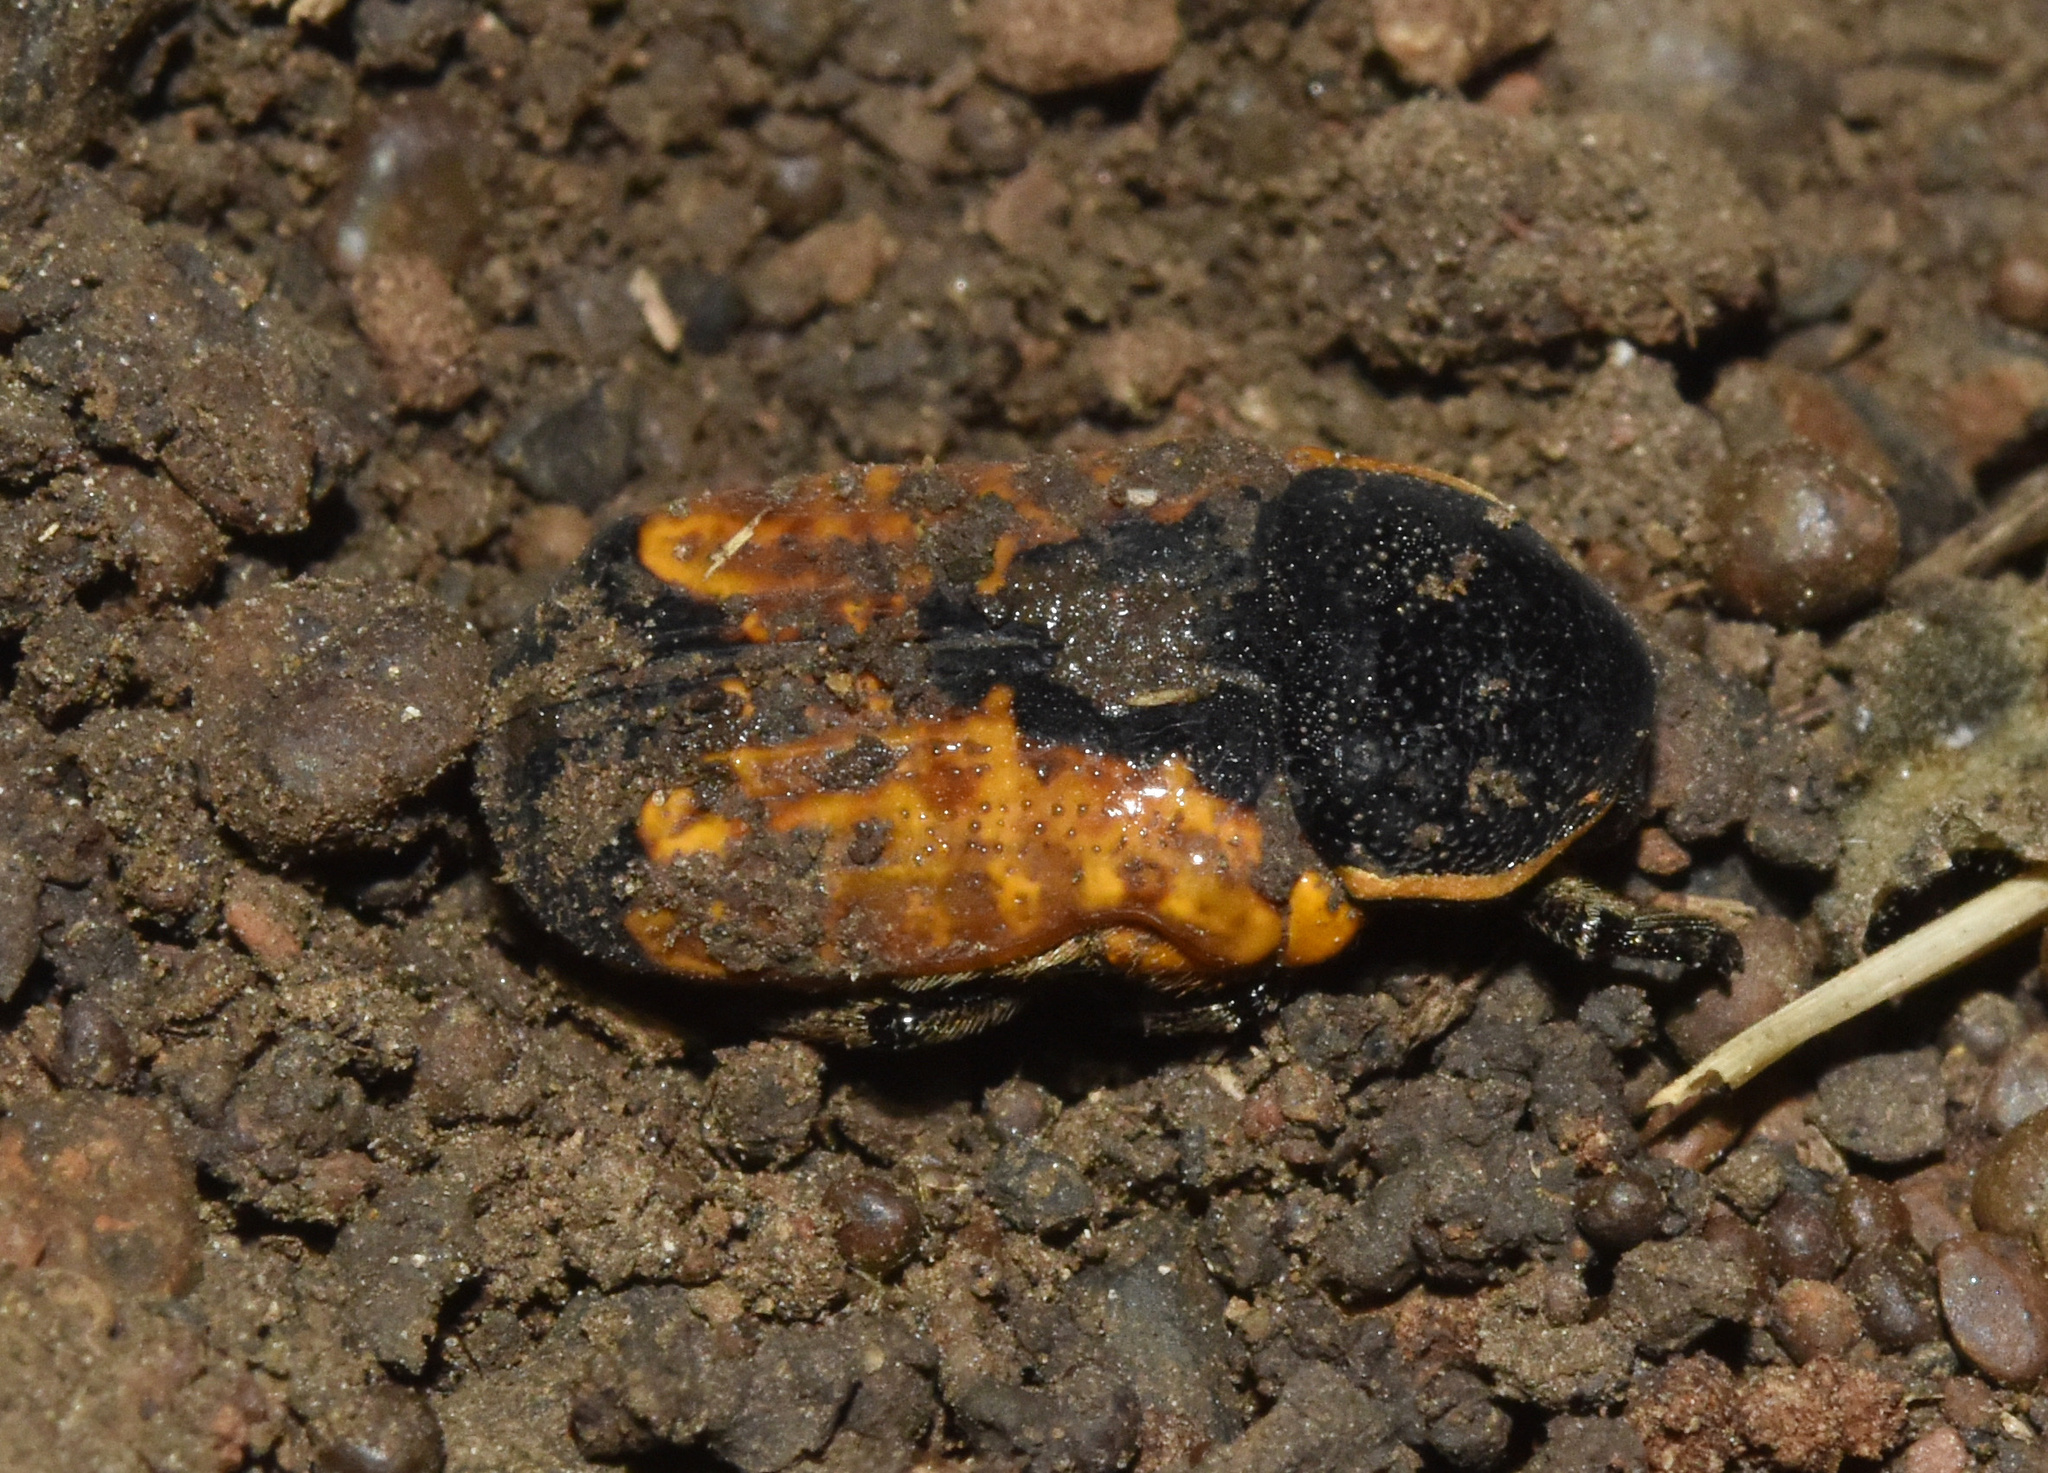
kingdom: Animalia
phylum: Arthropoda
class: Insecta
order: Coleoptera
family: Scarabaeidae
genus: Phonotaenia
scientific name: Phonotaenia balteata
